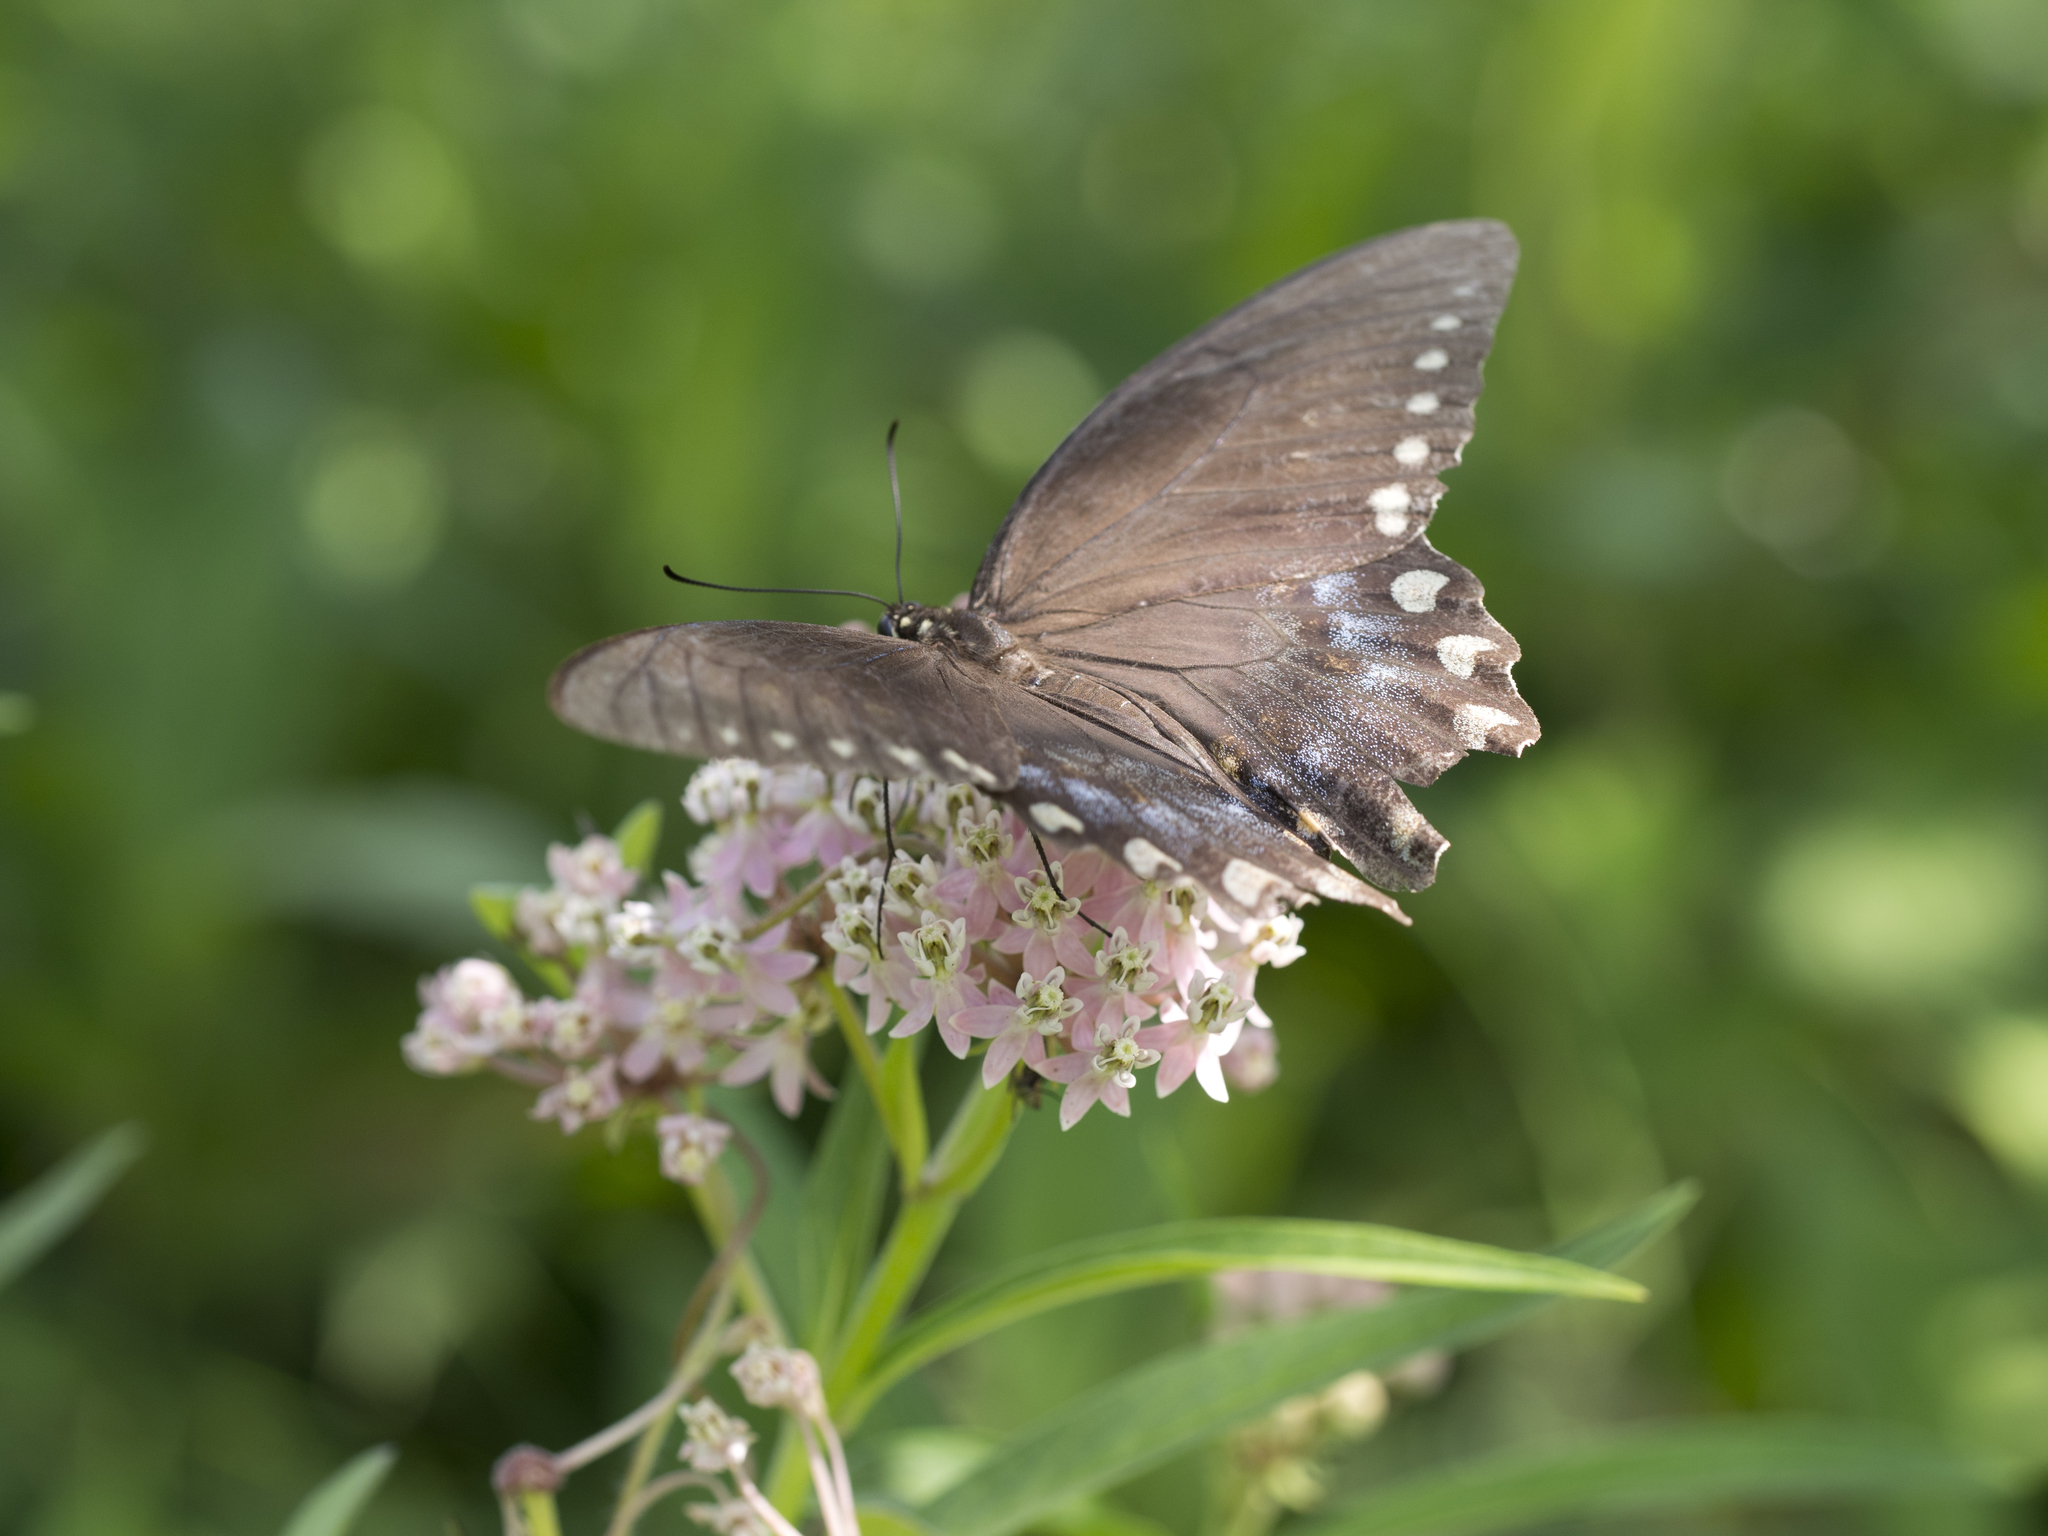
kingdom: Animalia
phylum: Arthropoda
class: Insecta
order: Lepidoptera
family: Papilionidae
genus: Papilio
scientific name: Papilio troilus
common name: Spicebush swallowtail
